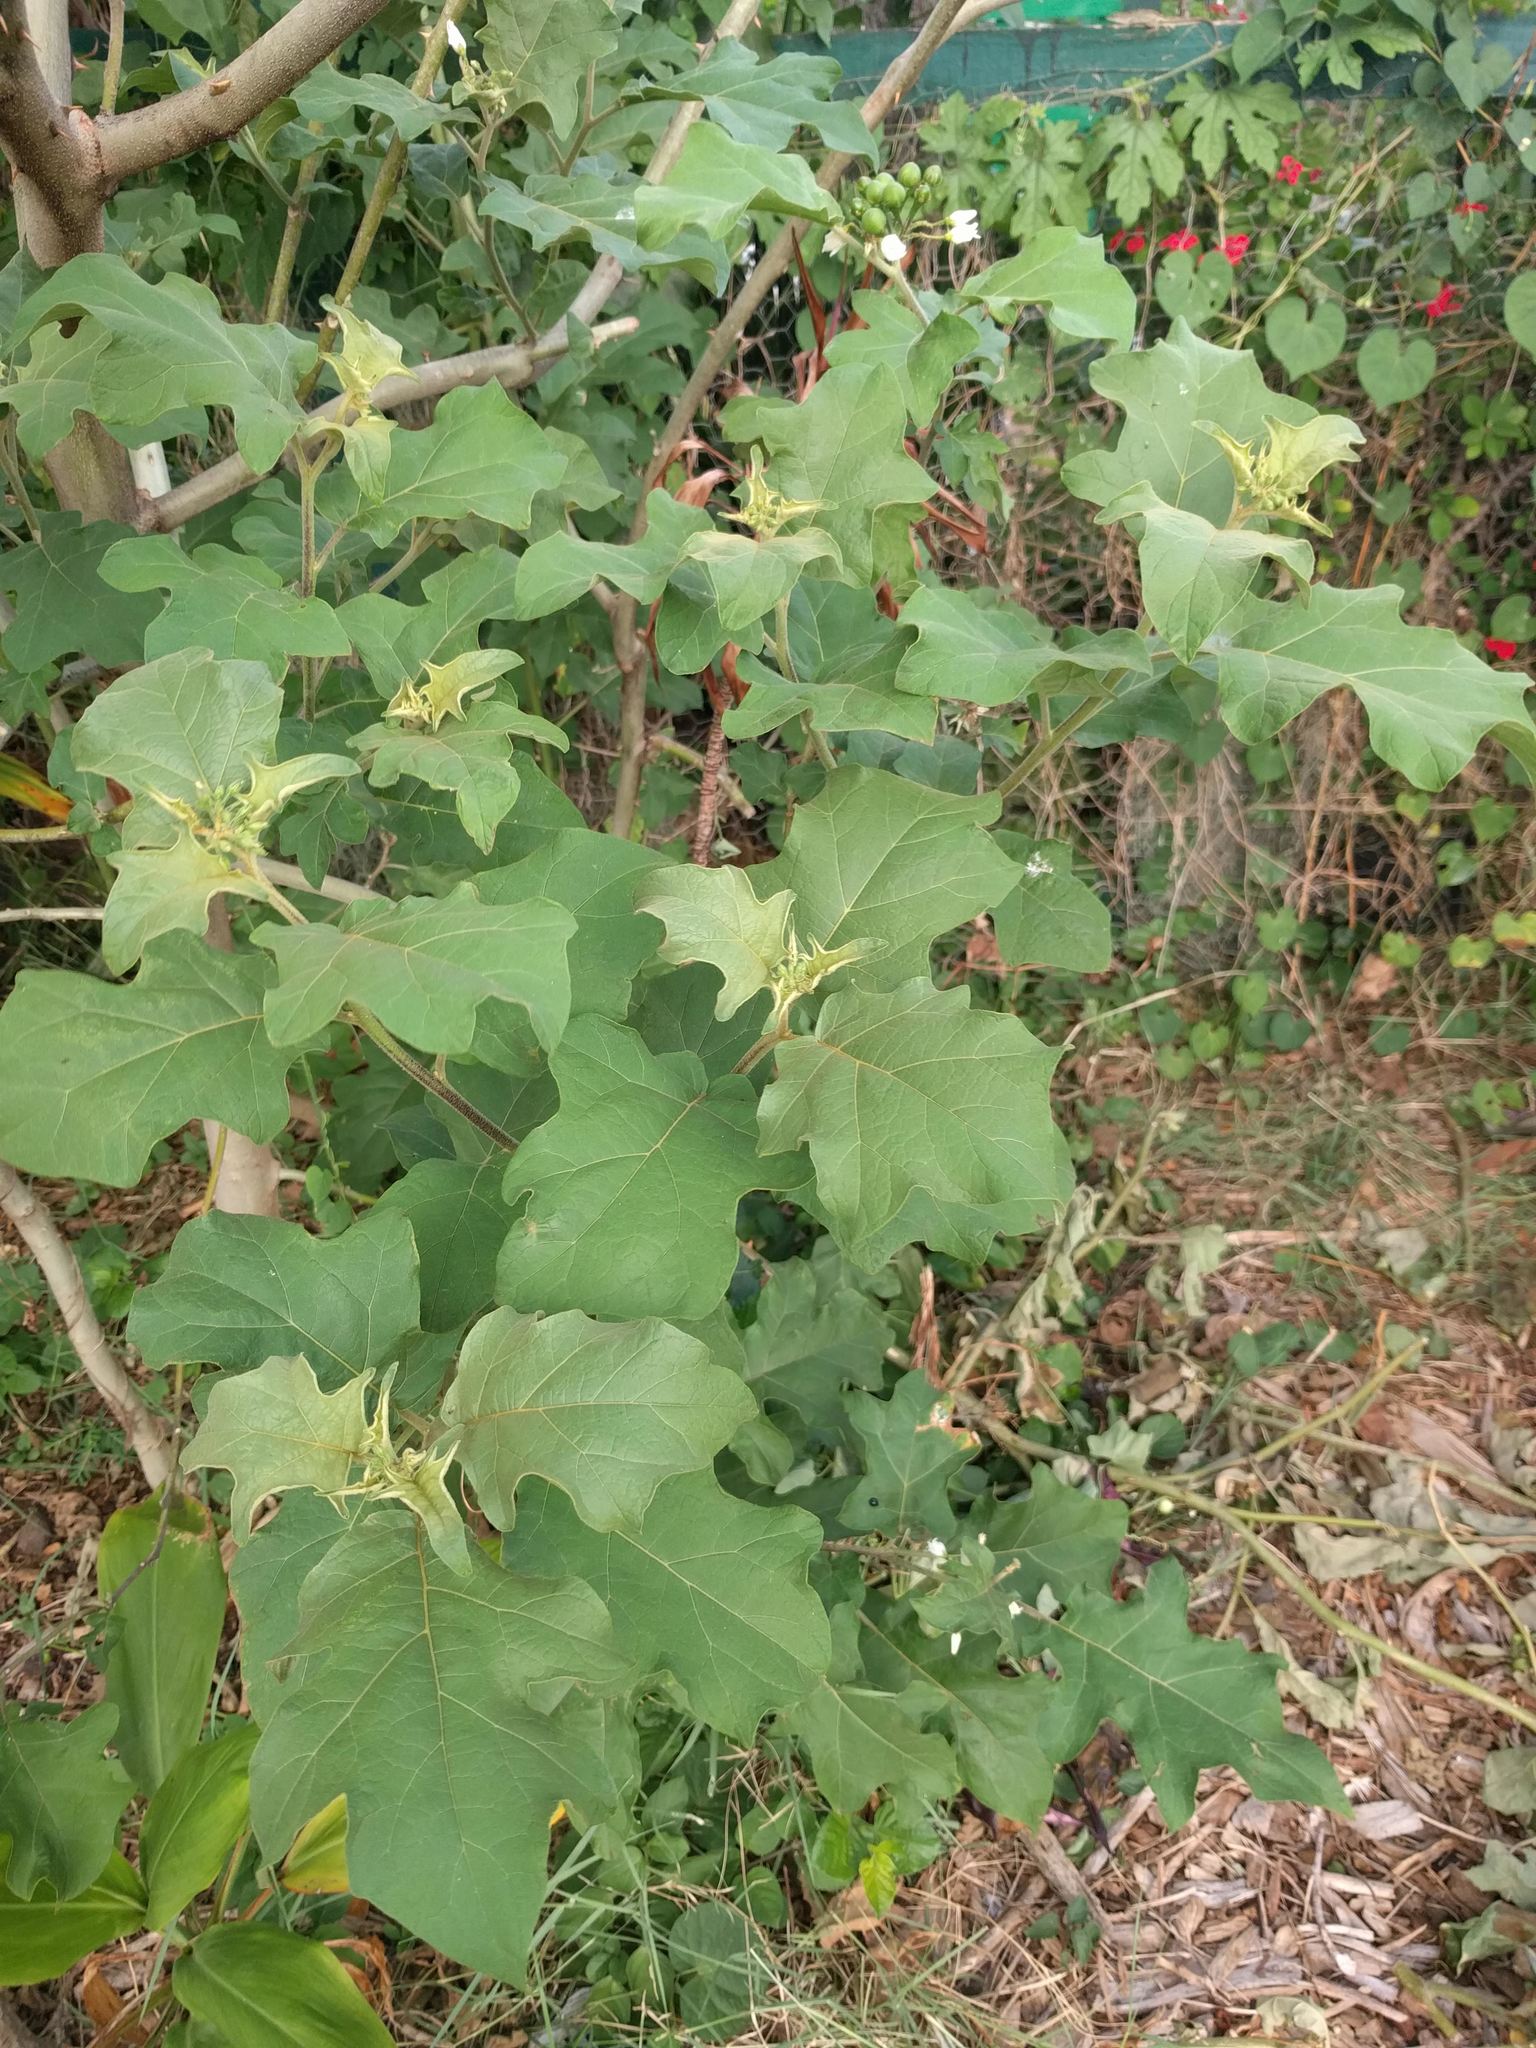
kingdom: Plantae
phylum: Tracheophyta
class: Magnoliopsida
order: Solanales
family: Solanaceae
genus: Solanum
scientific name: Solanum torvum
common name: Turkey berry
